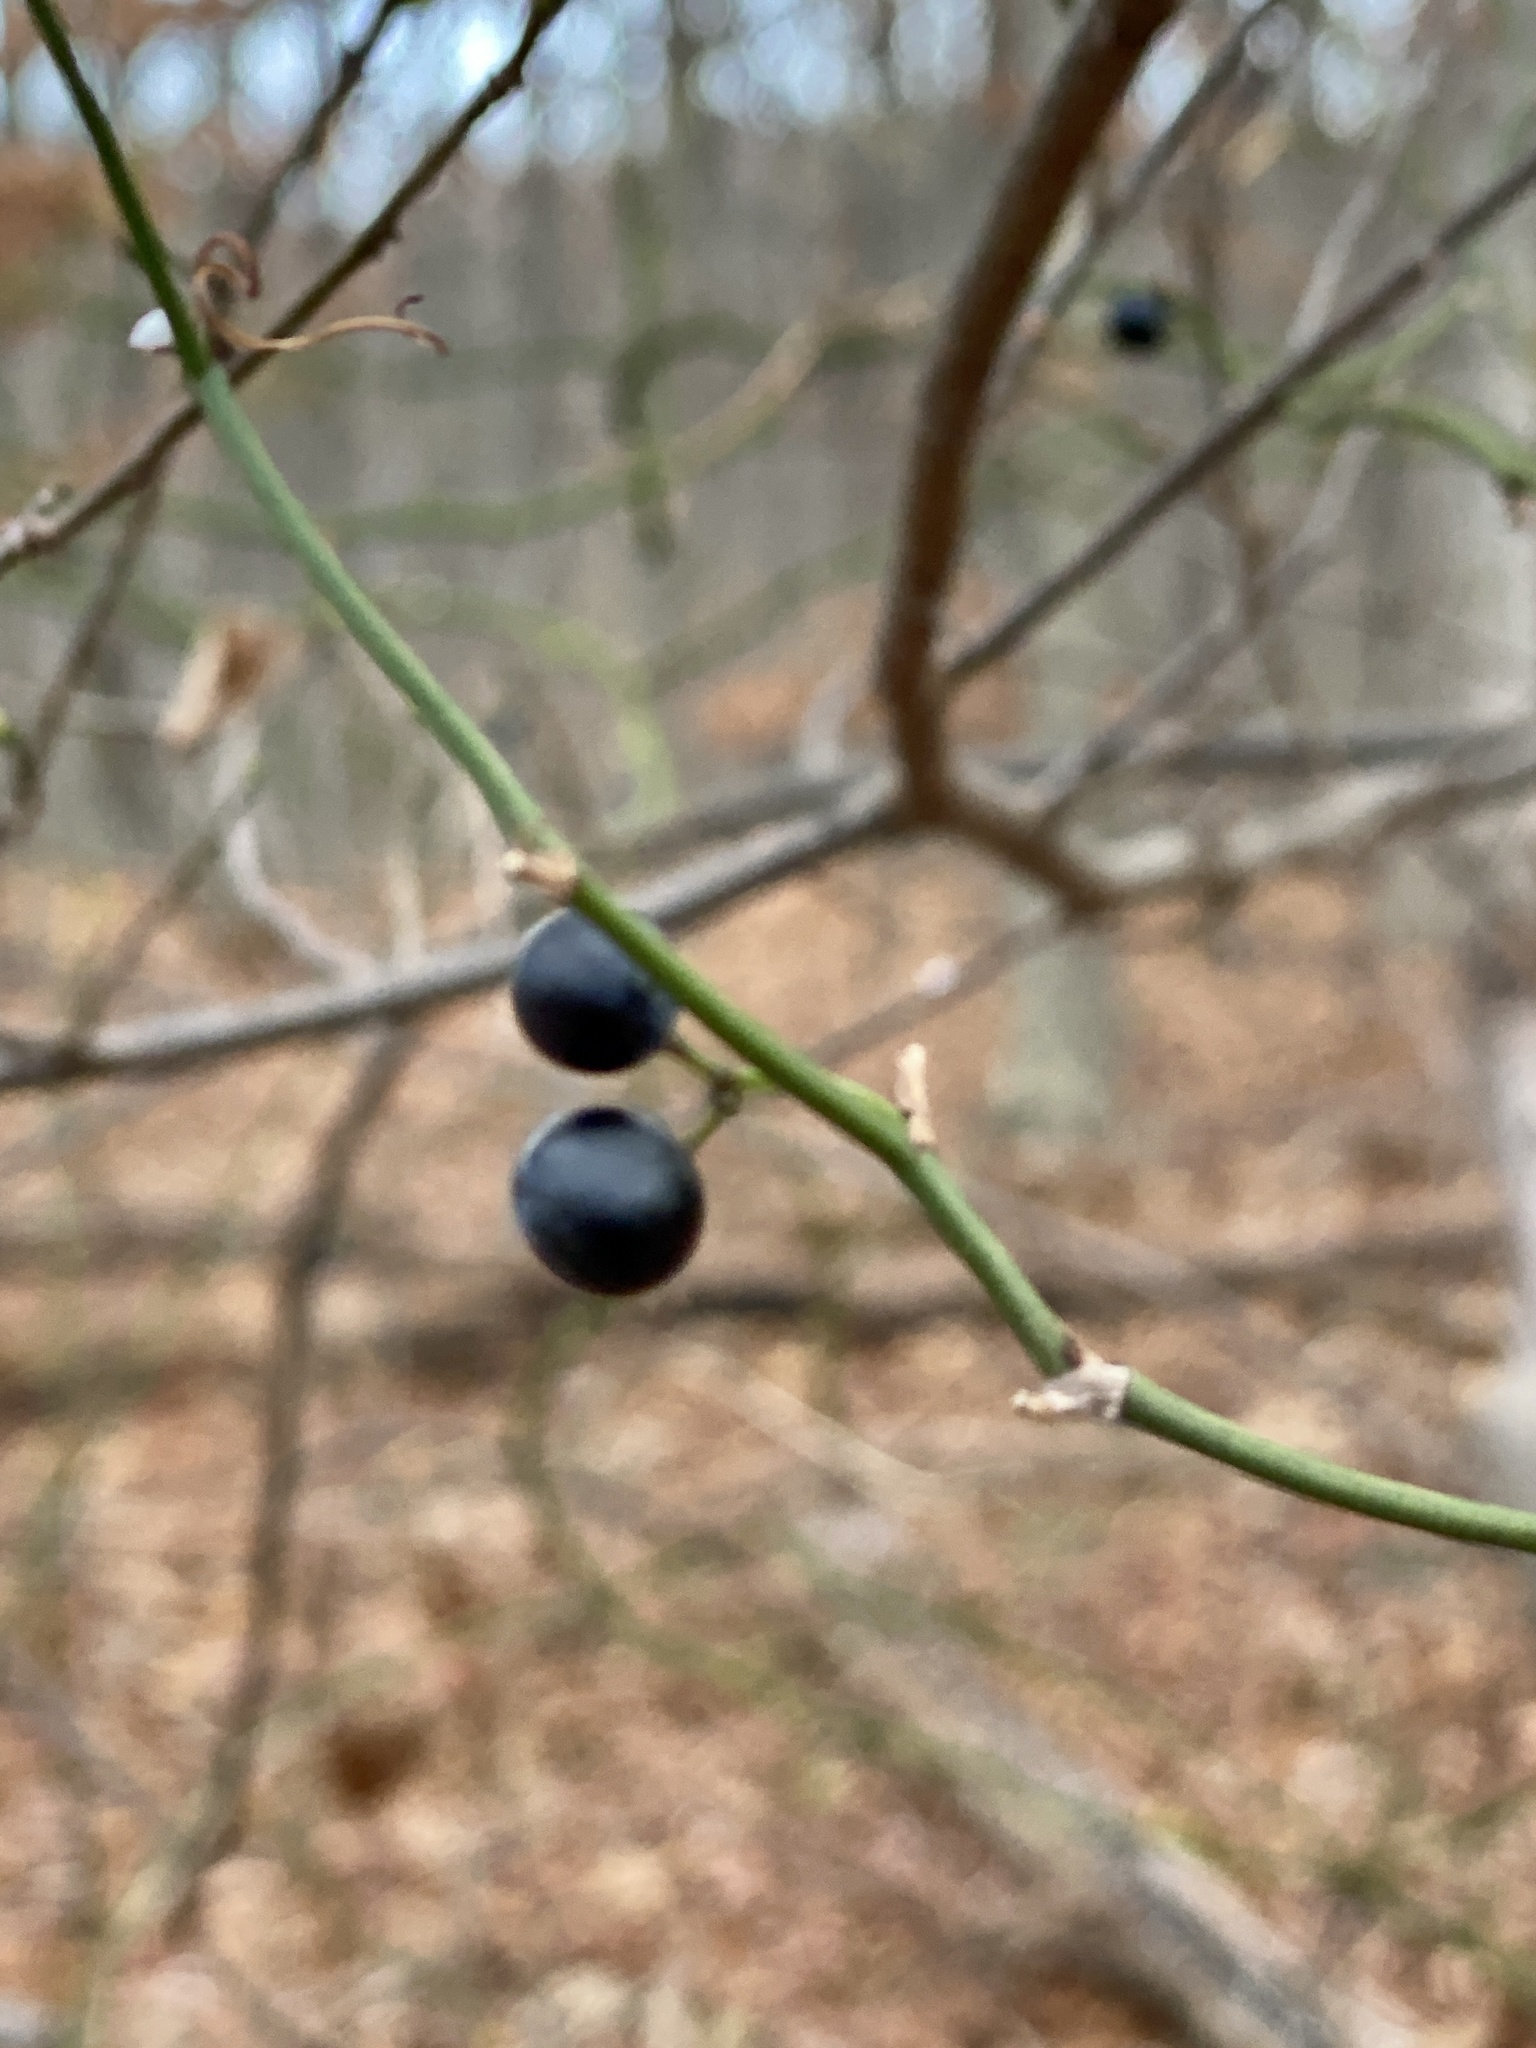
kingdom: Plantae
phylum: Tracheophyta
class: Liliopsida
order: Liliales
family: Smilacaceae
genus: Smilax
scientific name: Smilax rotundifolia
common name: Bullbriar
